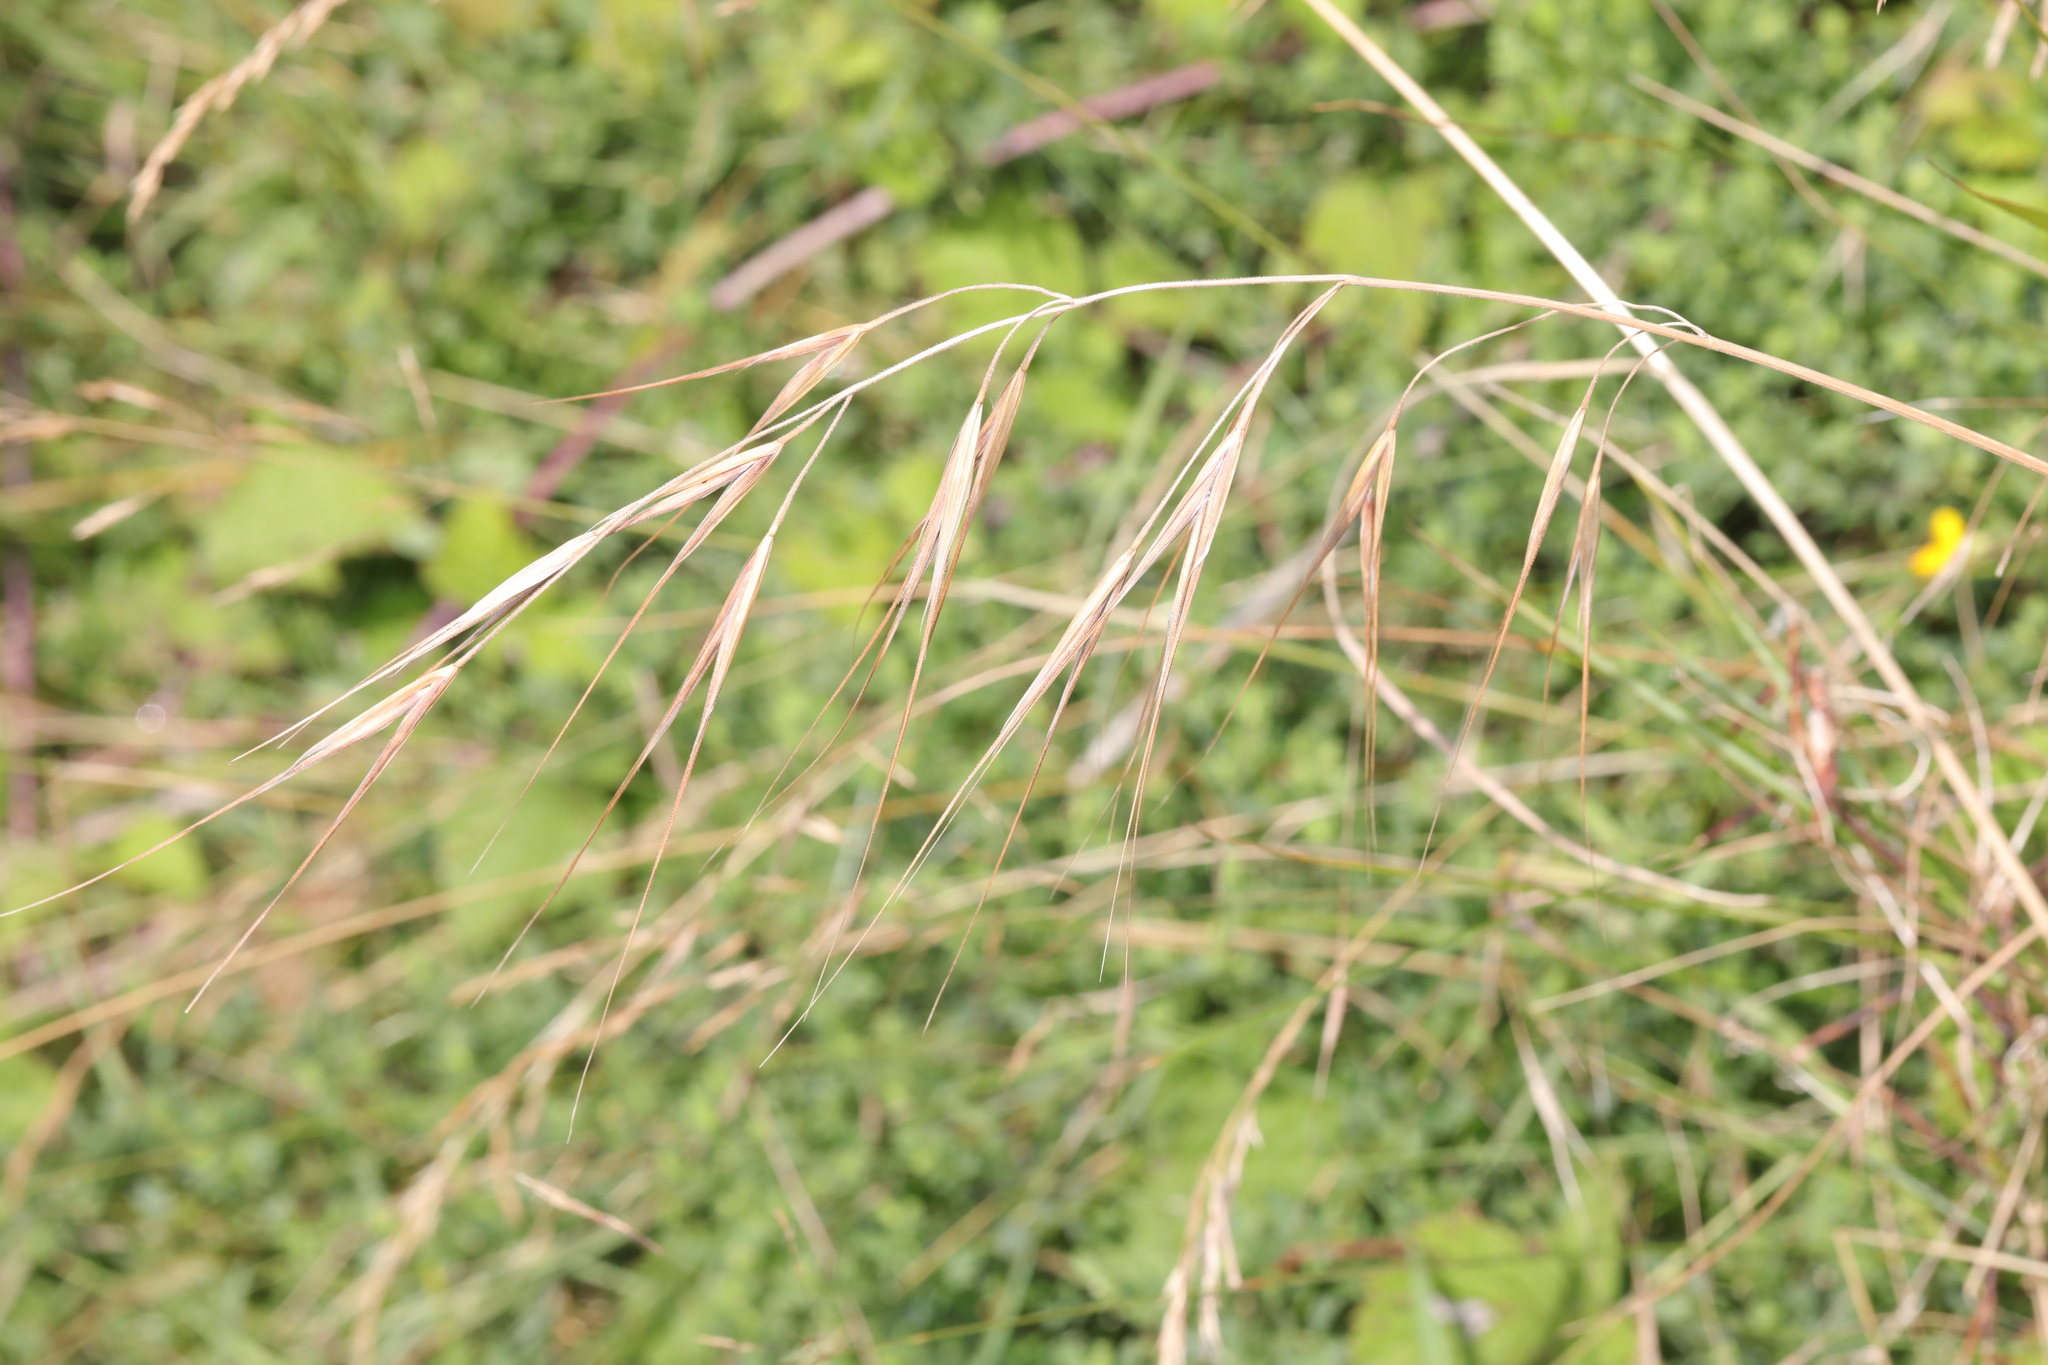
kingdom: Plantae
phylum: Tracheophyta
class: Liliopsida
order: Poales
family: Poaceae
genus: Bromus
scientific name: Bromus sterilis
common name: Poverty brome
